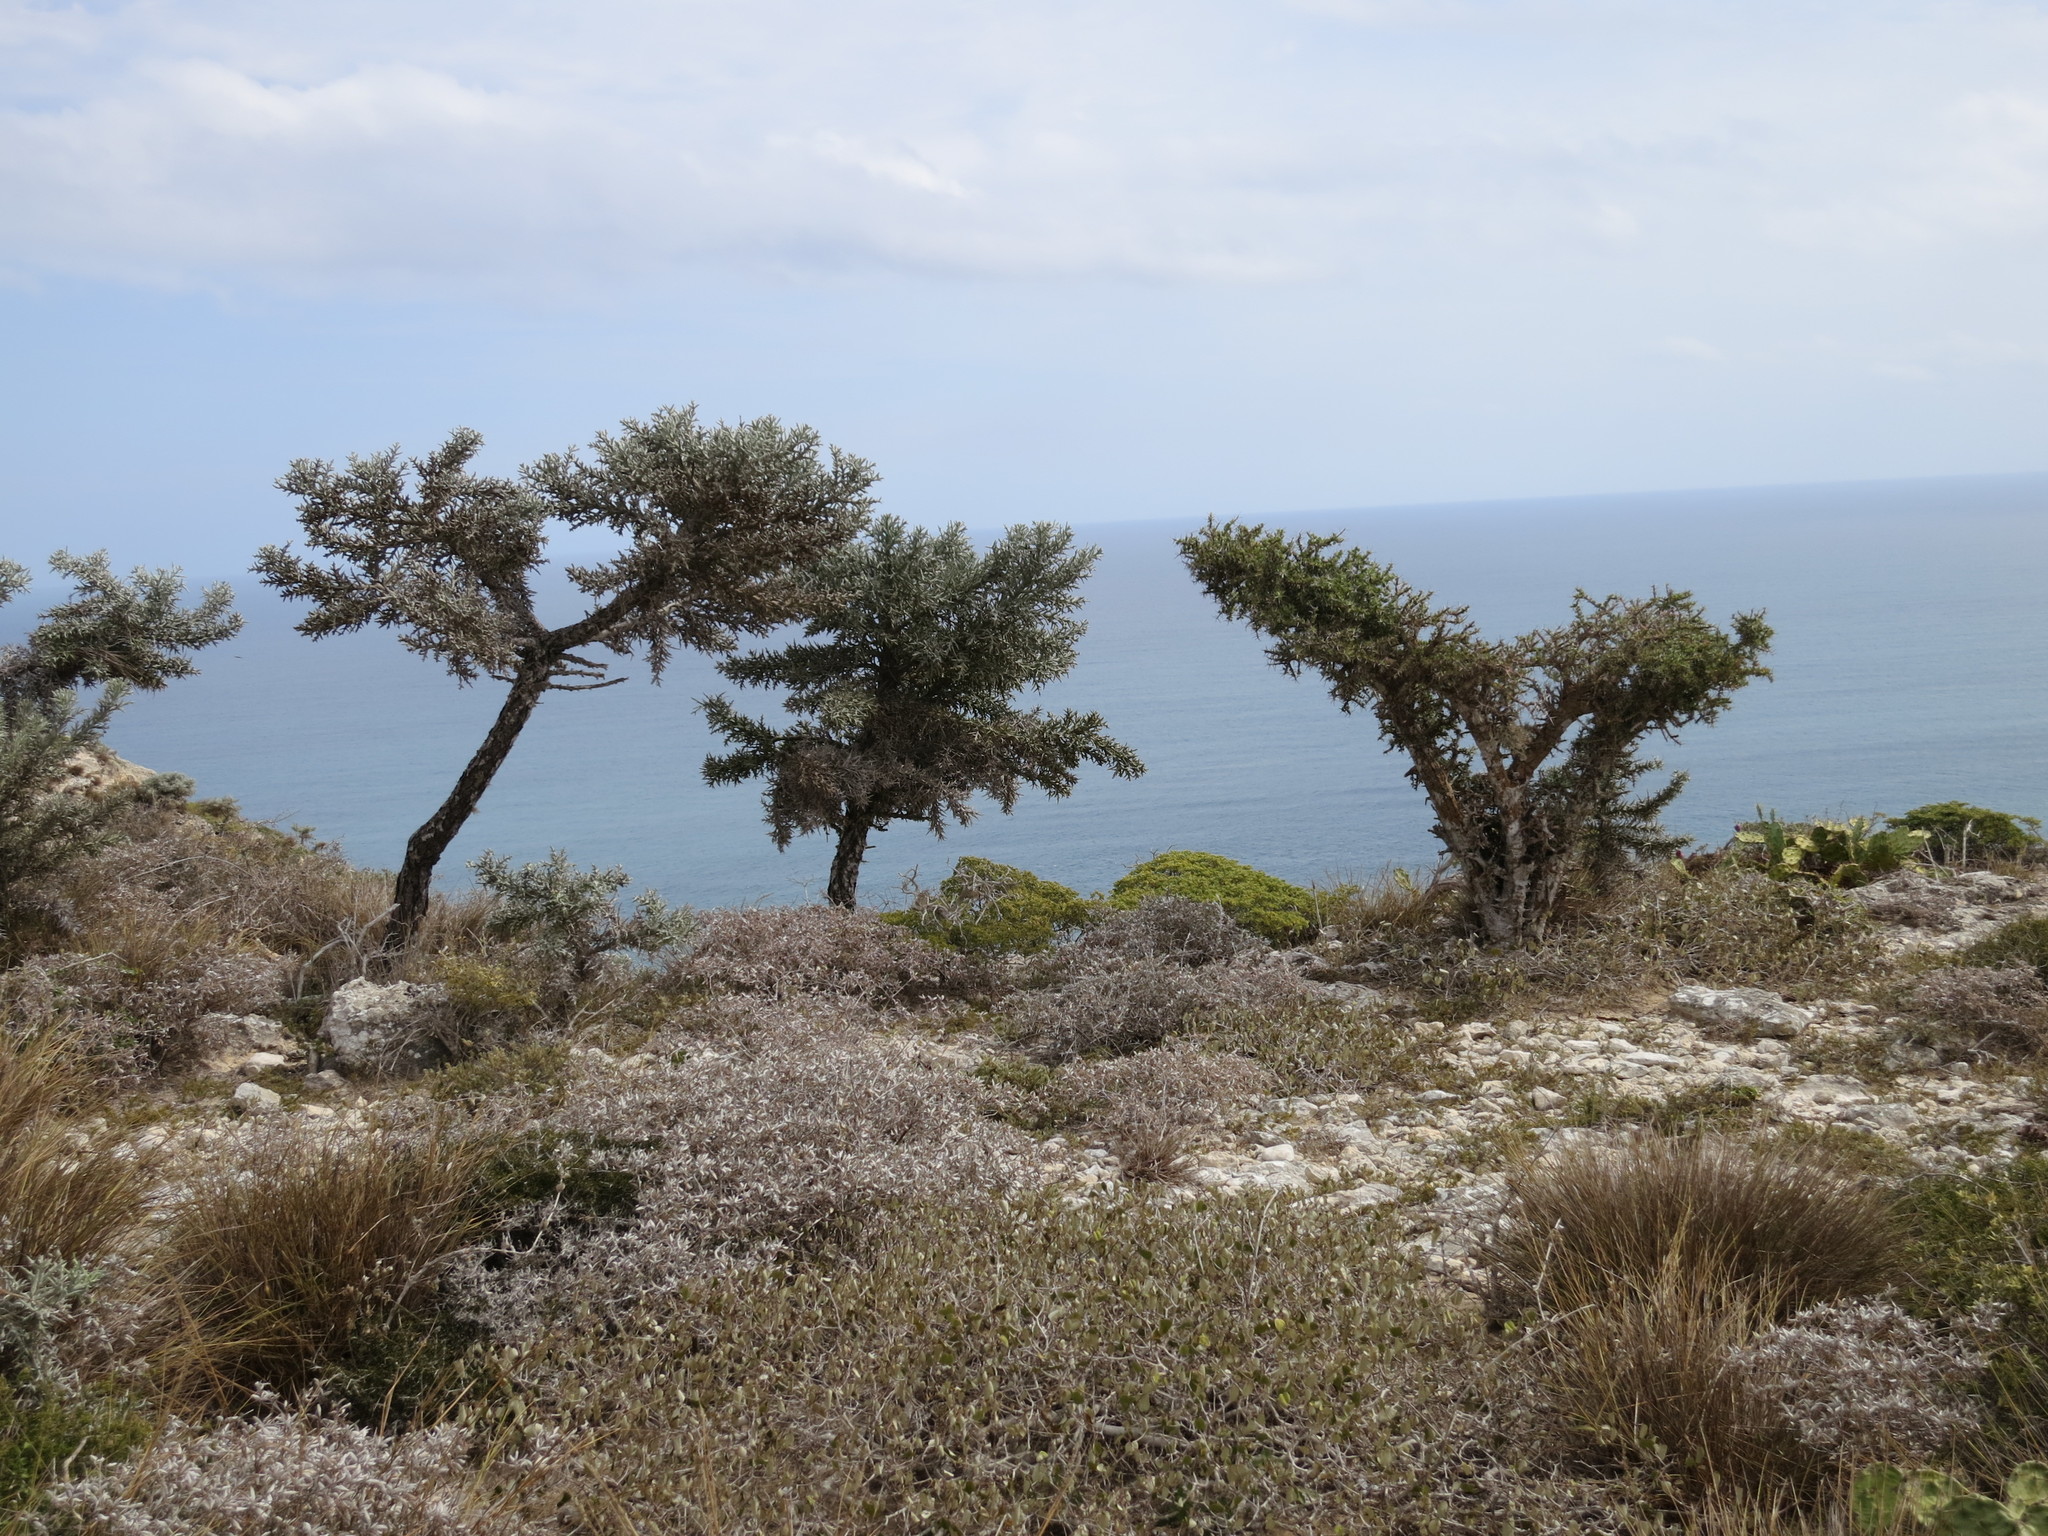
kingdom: Plantae
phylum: Tracheophyta
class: Magnoliopsida
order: Malpighiales
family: Euphorbiaceae
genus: Euphorbia
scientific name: Euphorbia stenoclada
